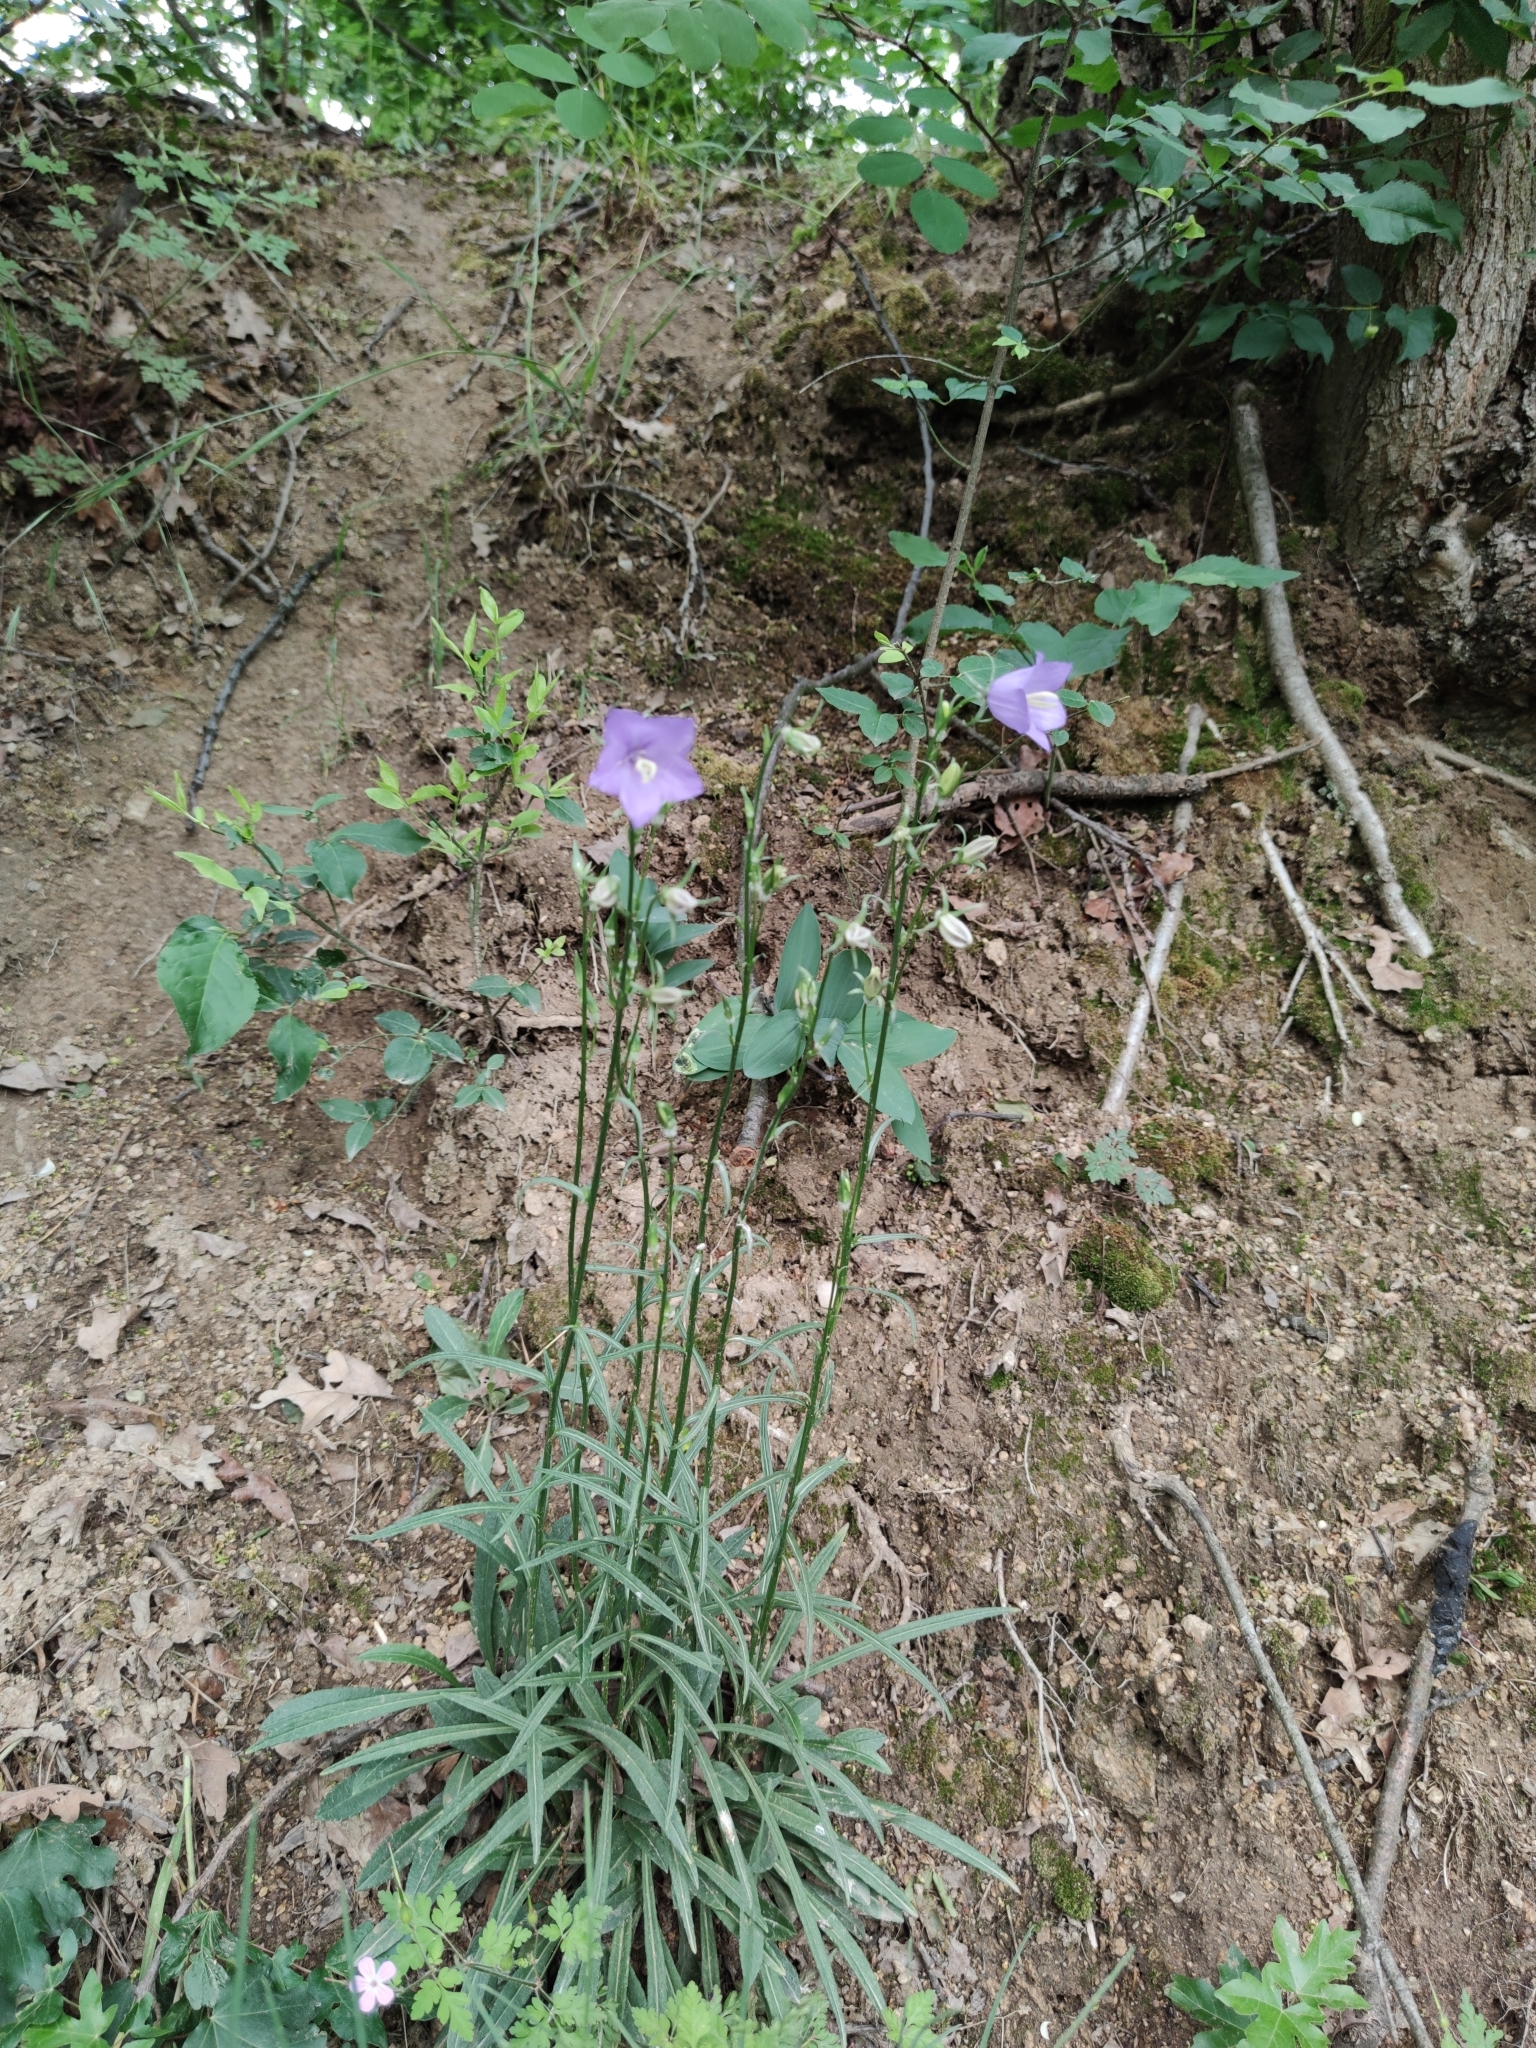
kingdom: Plantae
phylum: Tracheophyta
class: Magnoliopsida
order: Asterales
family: Campanulaceae
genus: Campanula
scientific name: Campanula persicifolia
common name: Peach-leaved bellflower
